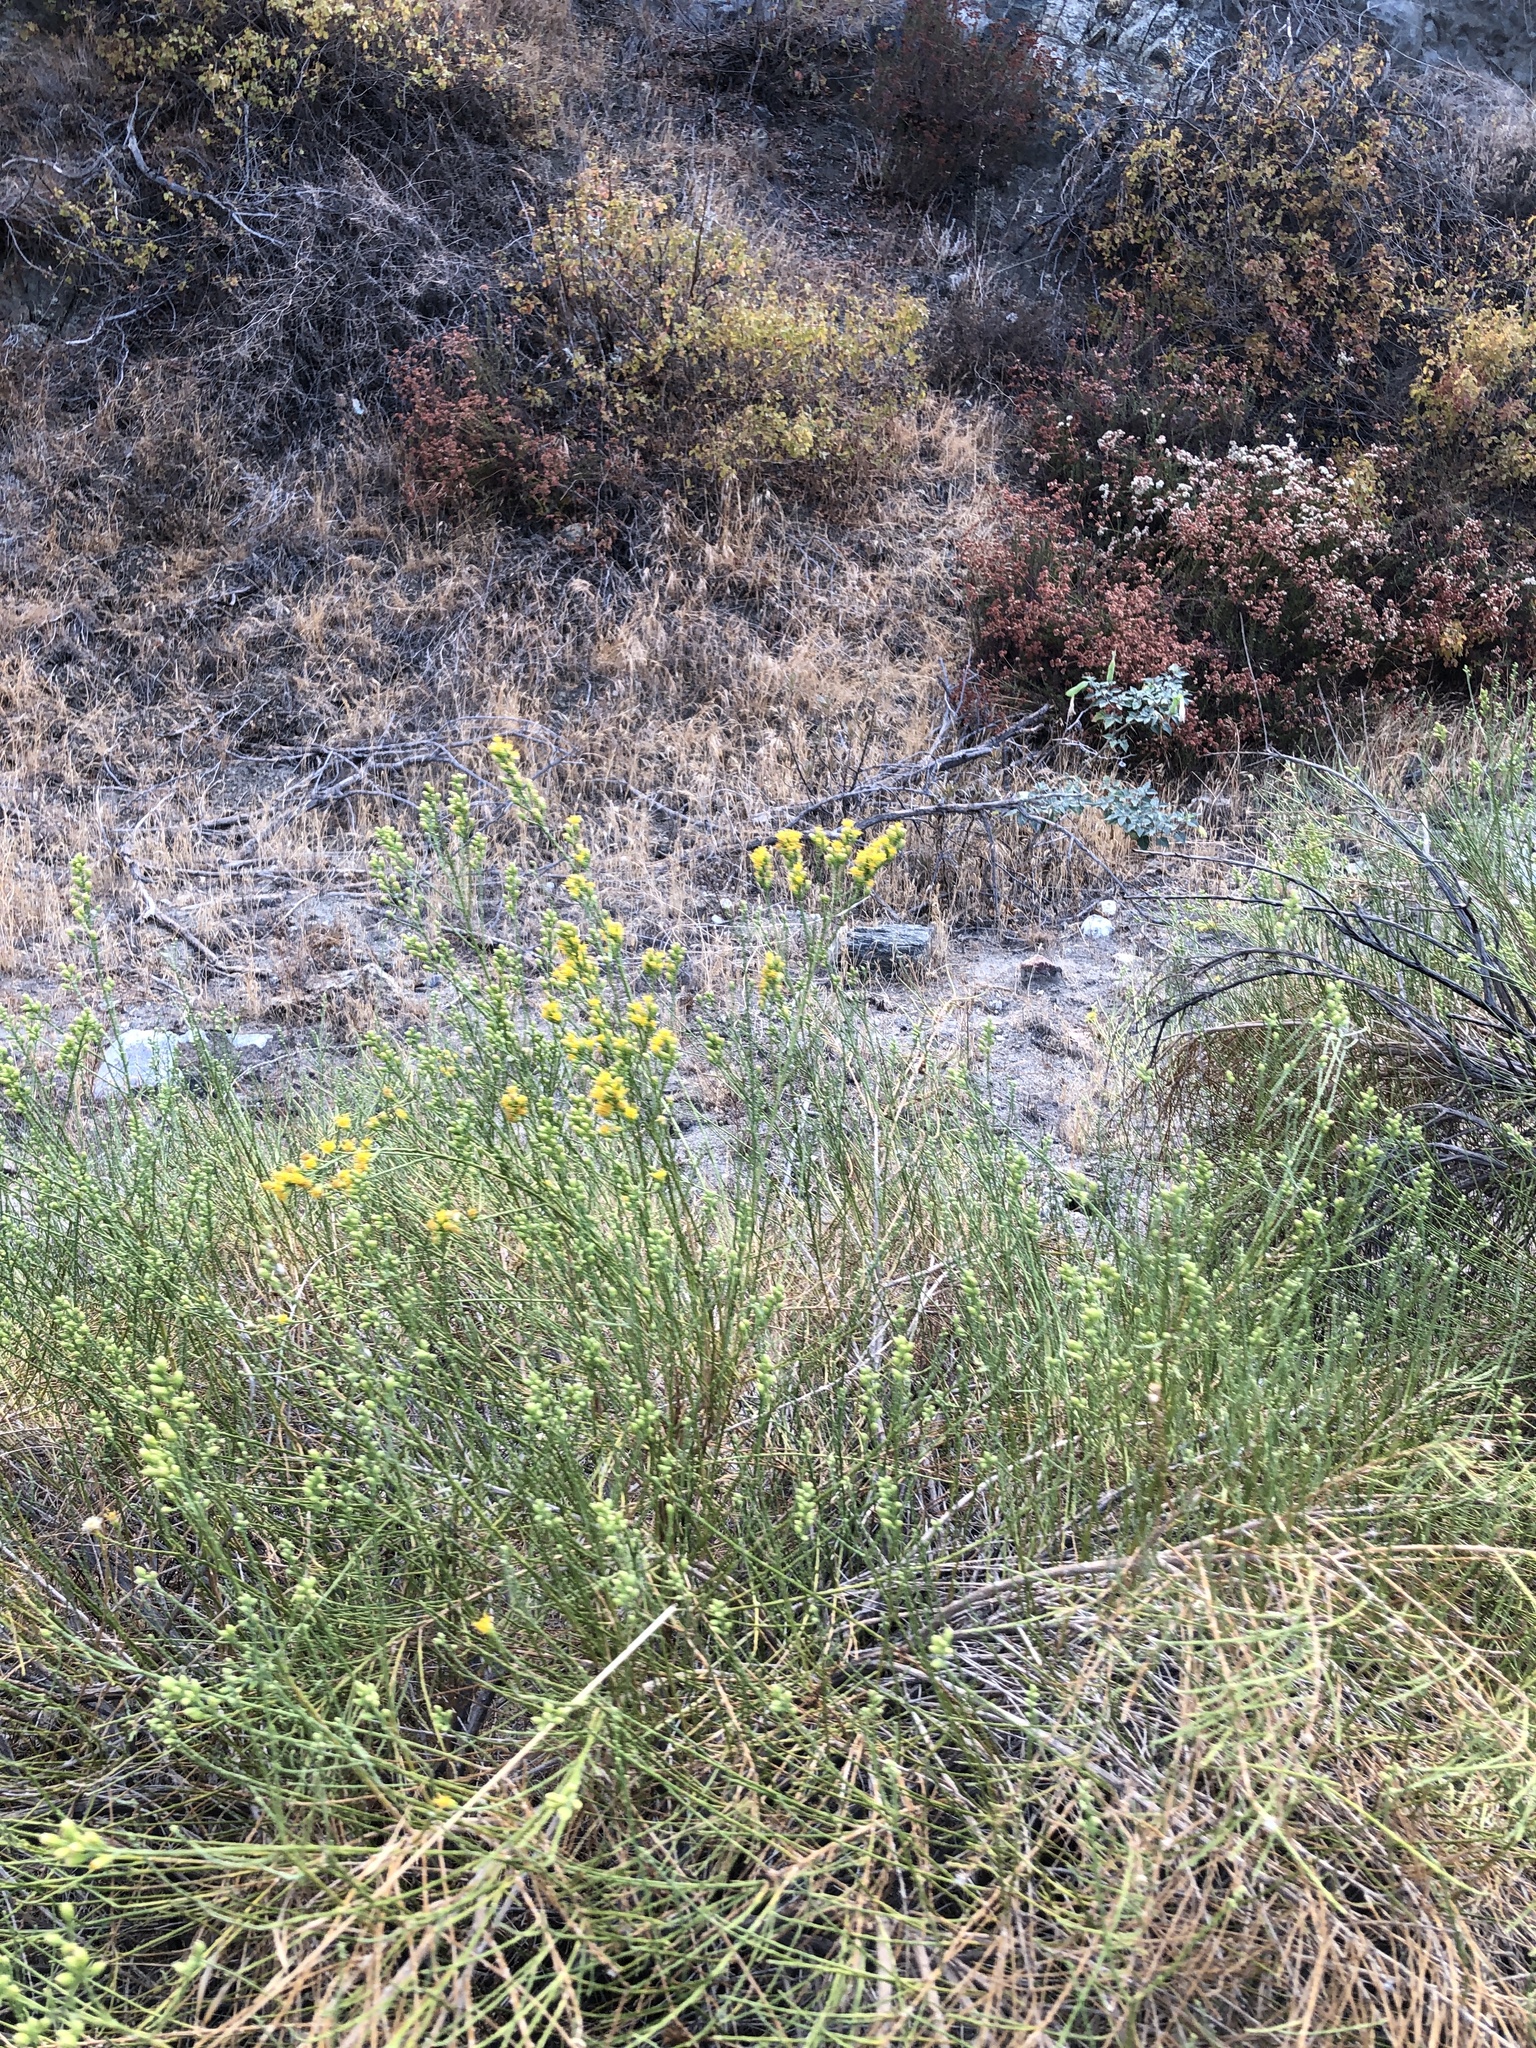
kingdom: Plantae
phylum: Tracheophyta
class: Magnoliopsida
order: Asterales
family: Asteraceae
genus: Lepidospartum
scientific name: Lepidospartum squamatum
